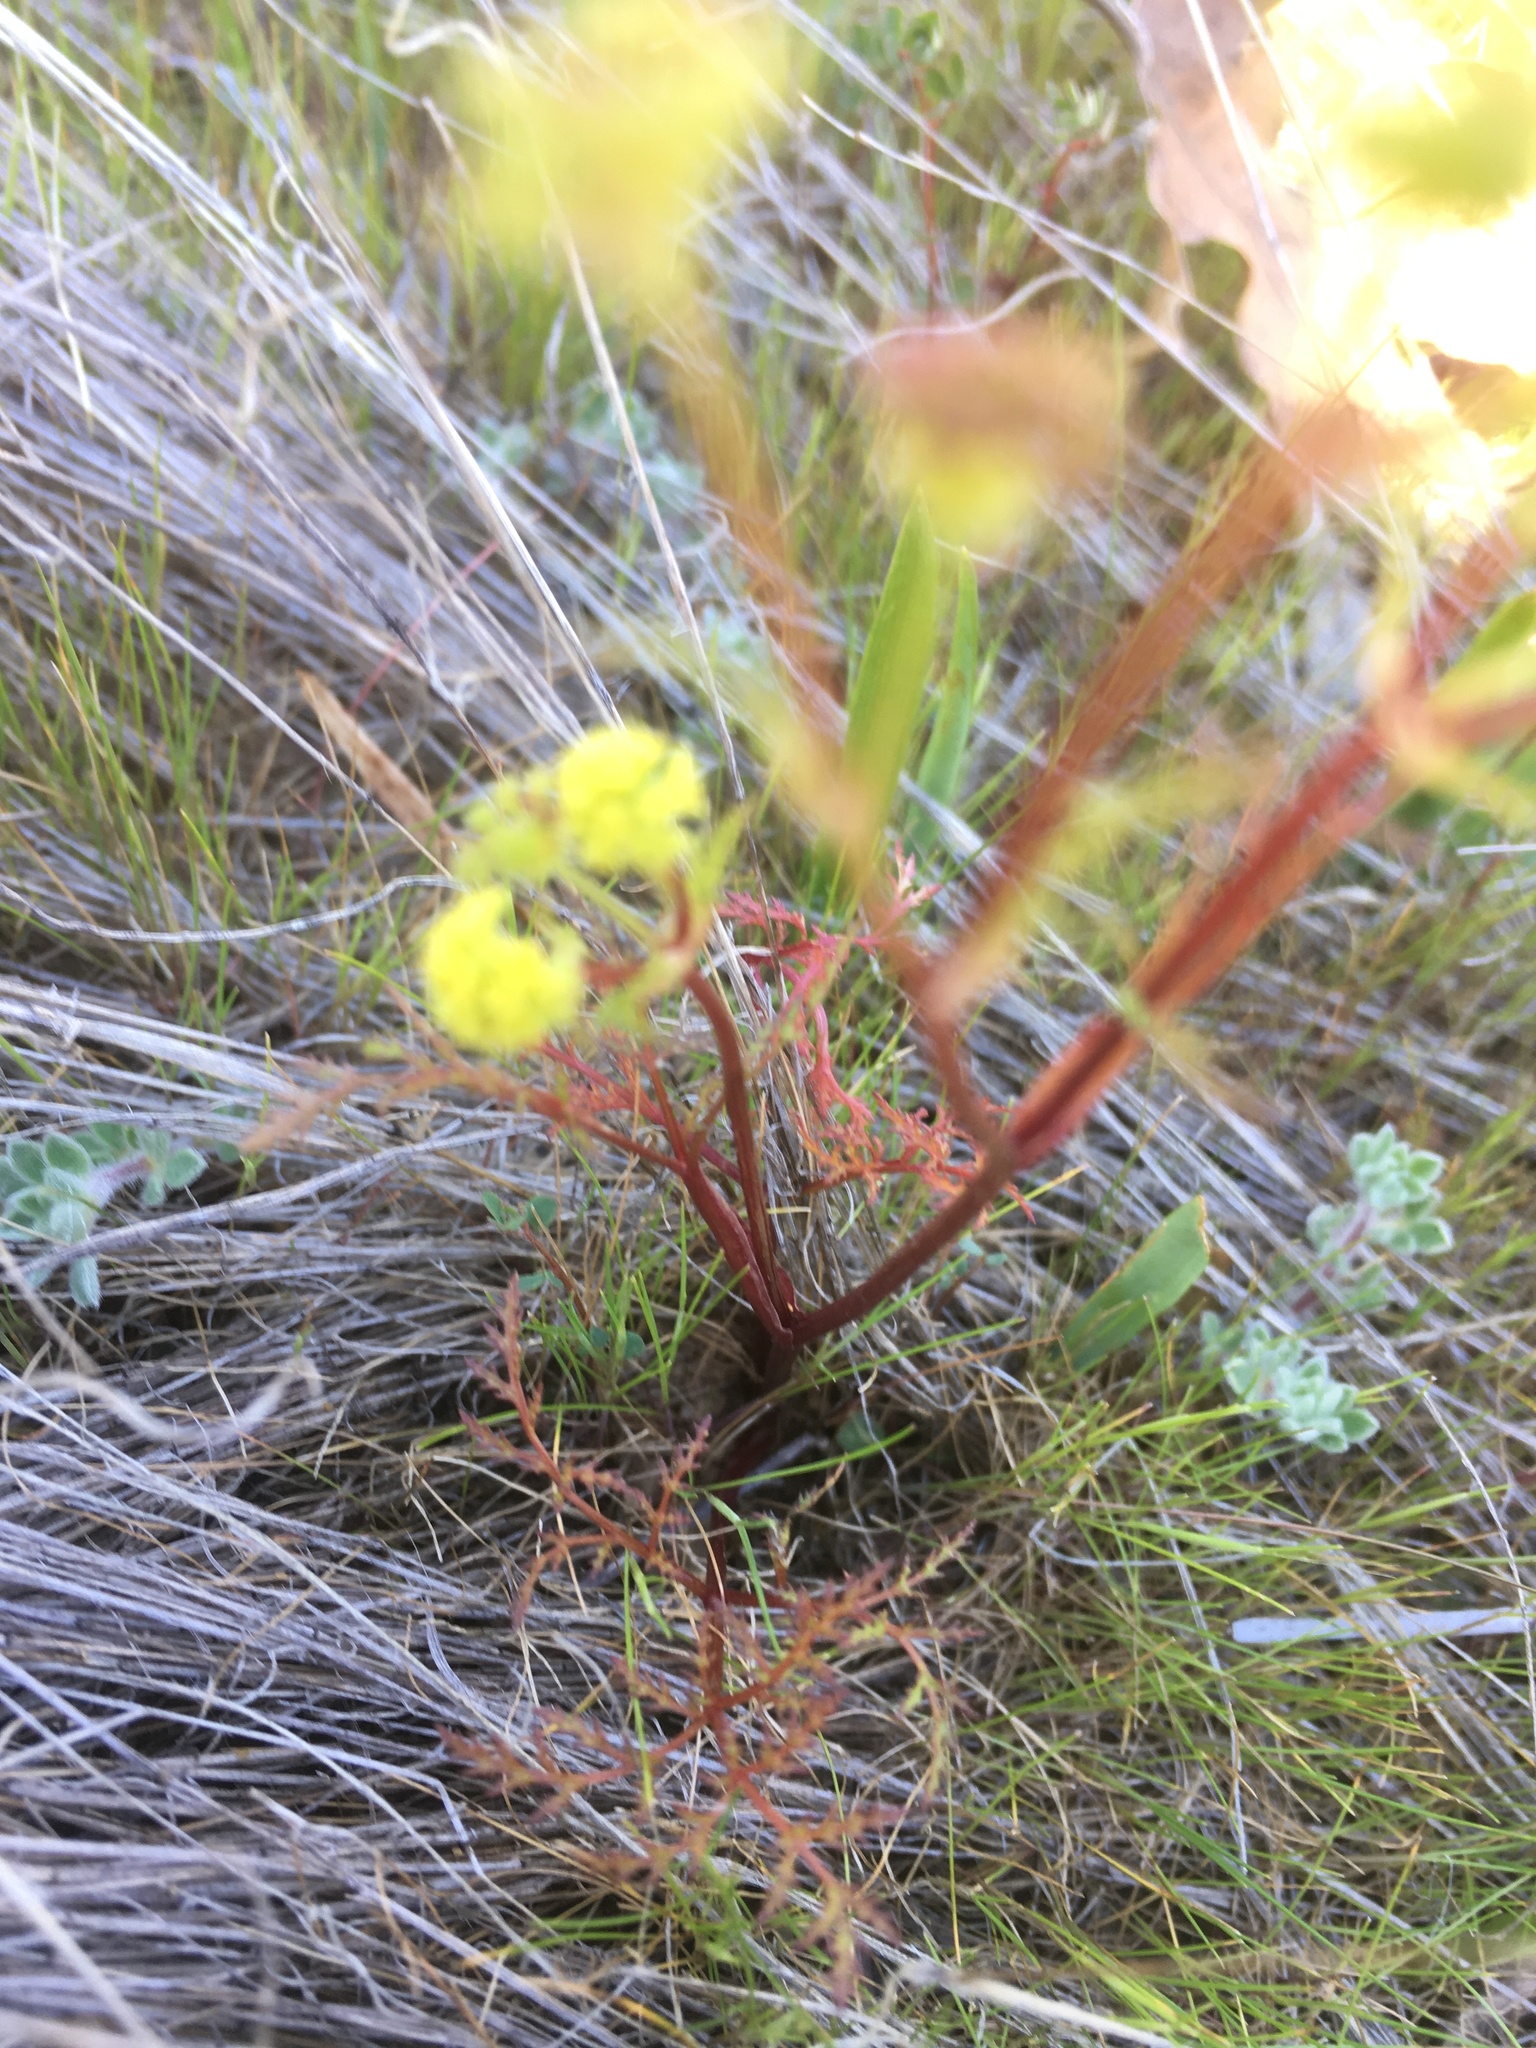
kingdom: Plantae
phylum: Tracheophyta
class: Magnoliopsida
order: Apiales
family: Apiaceae
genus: Sanicula
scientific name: Sanicula tuberosa
